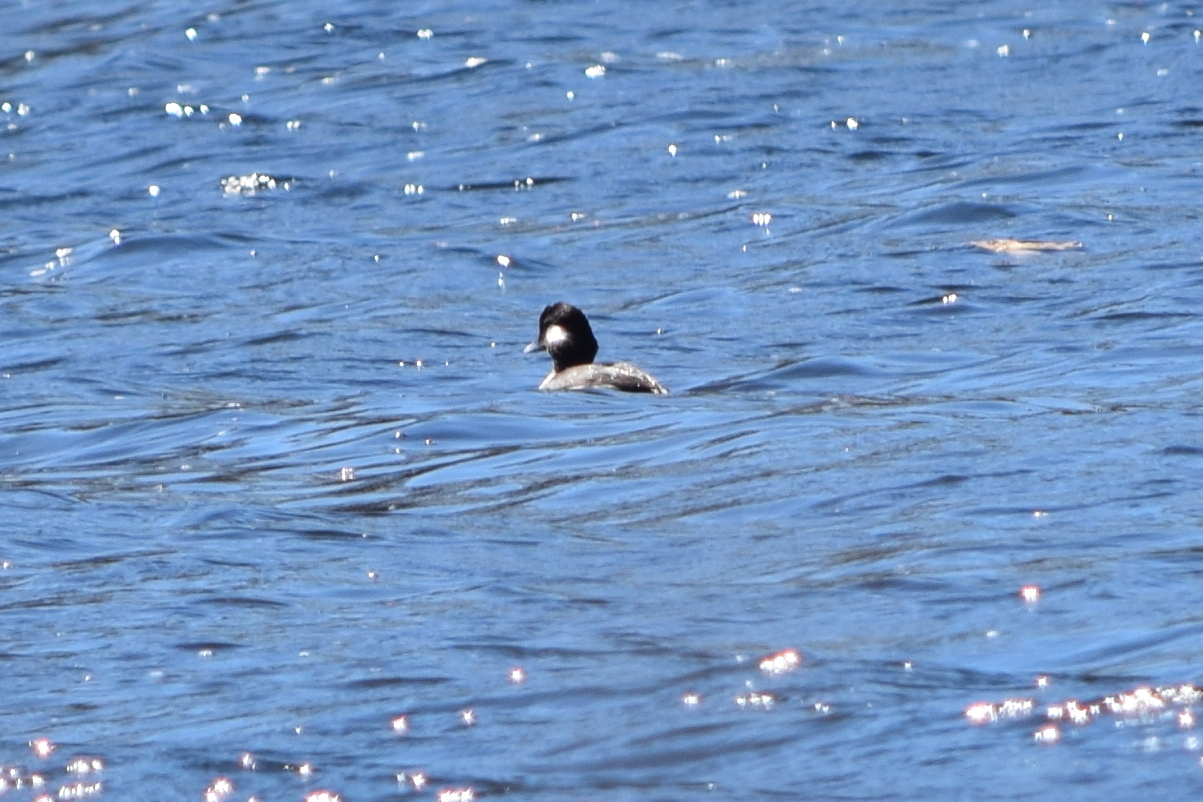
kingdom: Animalia
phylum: Chordata
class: Aves
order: Anseriformes
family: Anatidae
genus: Bucephala
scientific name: Bucephala albeola
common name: Bufflehead
